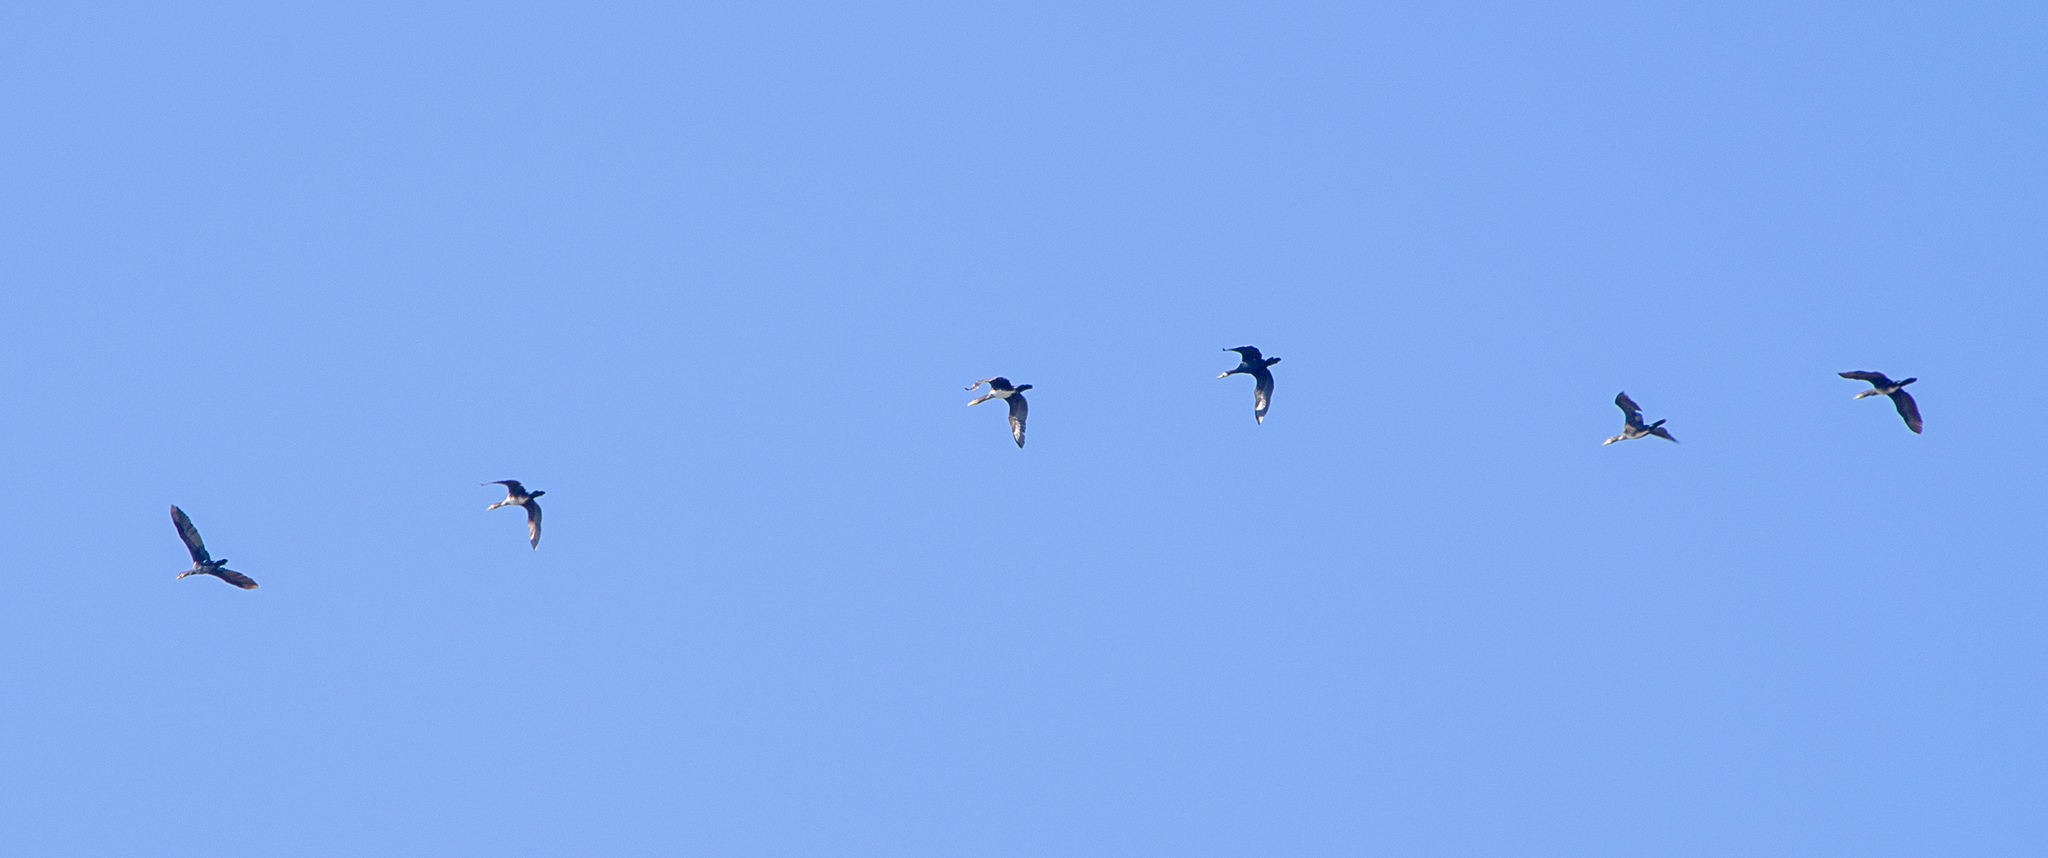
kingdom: Animalia
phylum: Chordata
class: Aves
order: Suliformes
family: Phalacrocoracidae
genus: Phalacrocorax
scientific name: Phalacrocorax carbo
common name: Great cormorant
